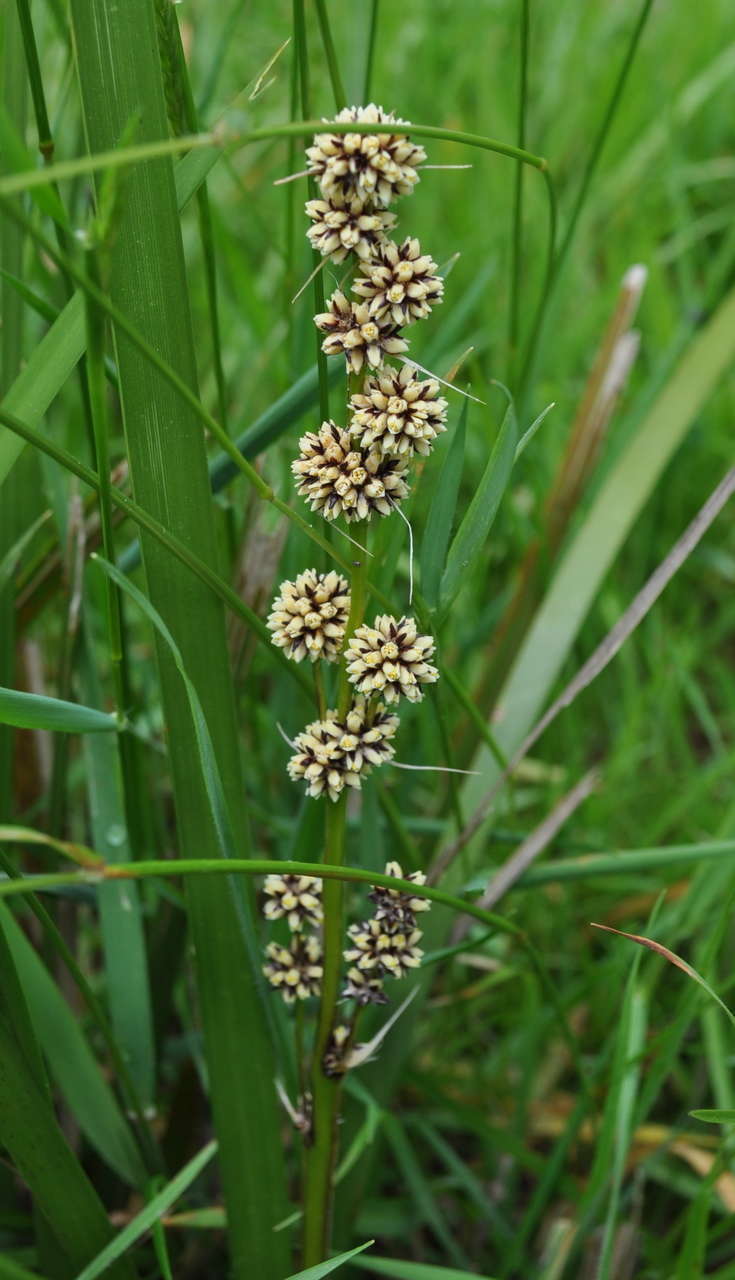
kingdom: Plantae
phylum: Tracheophyta
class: Liliopsida
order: Asparagales
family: Asparagaceae
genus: Lomandra
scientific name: Lomandra longifolia
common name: Longleaf mat-rush
